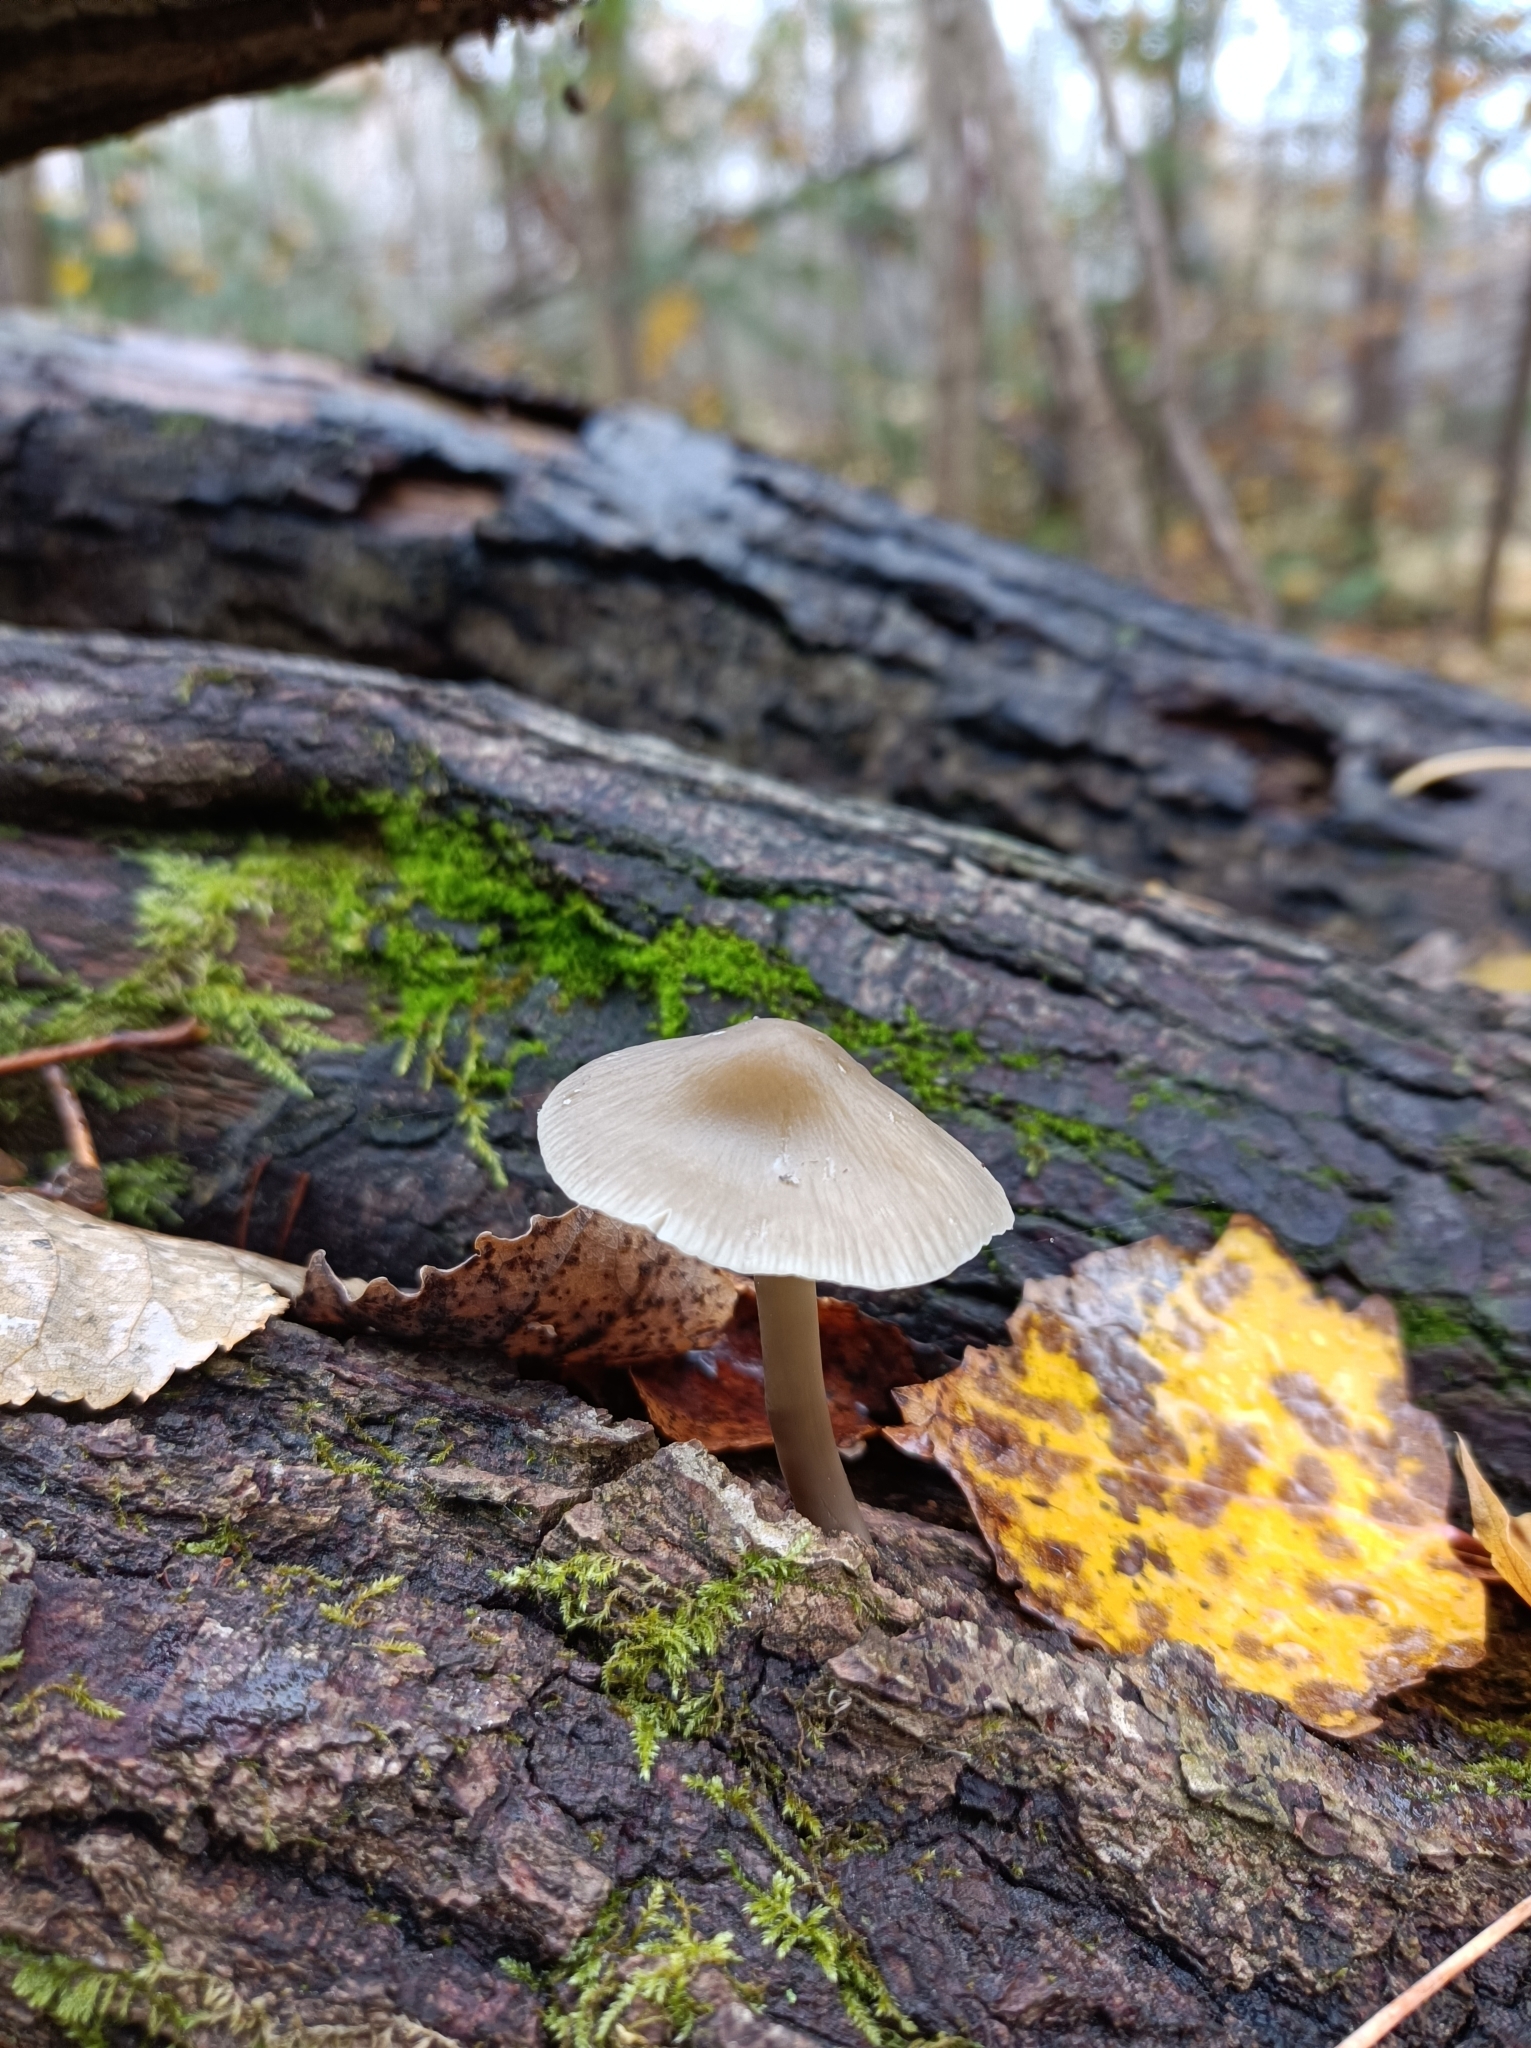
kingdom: Fungi
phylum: Basidiomycota
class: Agaricomycetes
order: Agaricales
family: Mycenaceae
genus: Mycena
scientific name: Mycena galericulata
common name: Bonnet mycena
